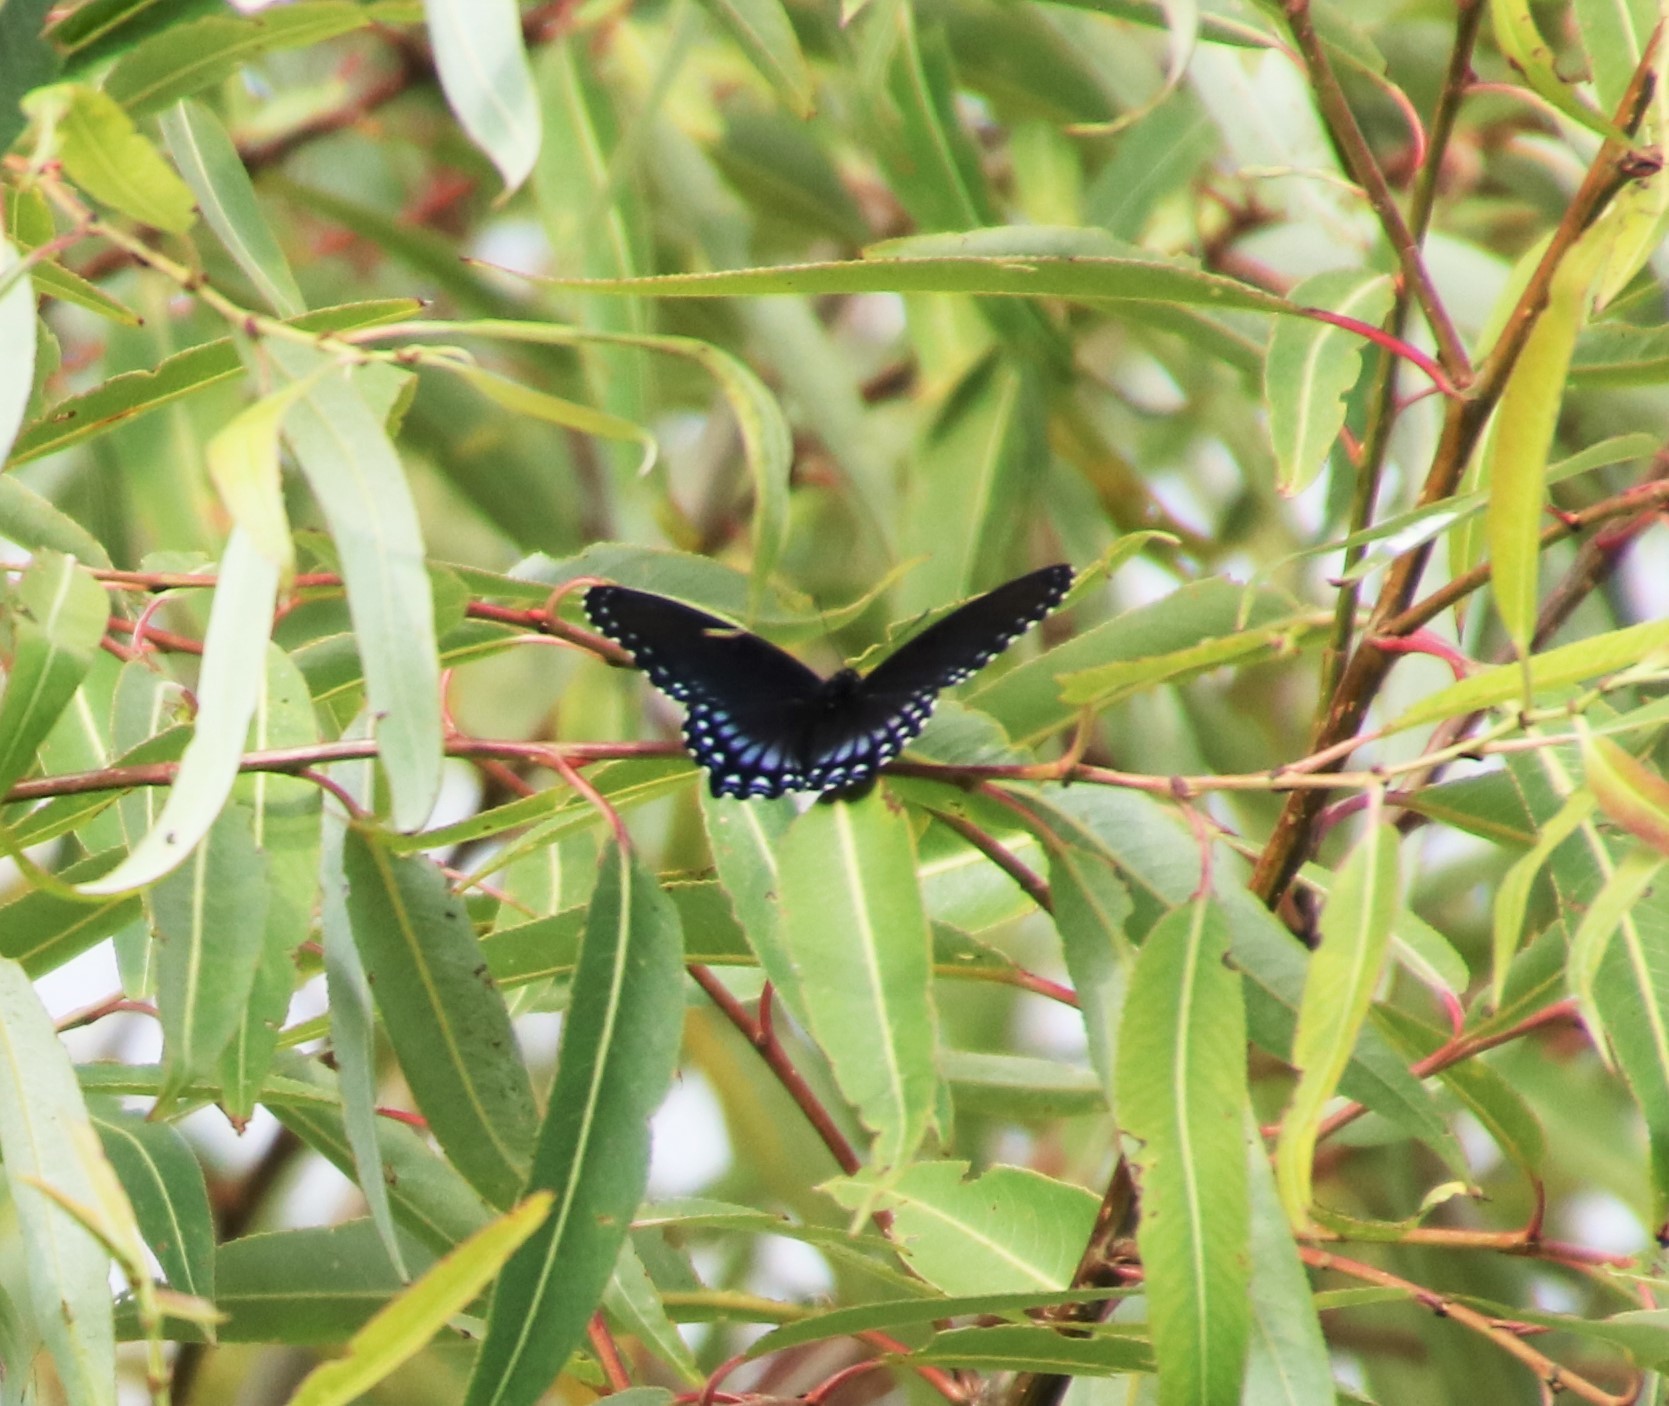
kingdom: Animalia
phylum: Arthropoda
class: Insecta
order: Lepidoptera
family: Nymphalidae
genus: Limenitis
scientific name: Limenitis arthemis
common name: Red-spotted admiral
